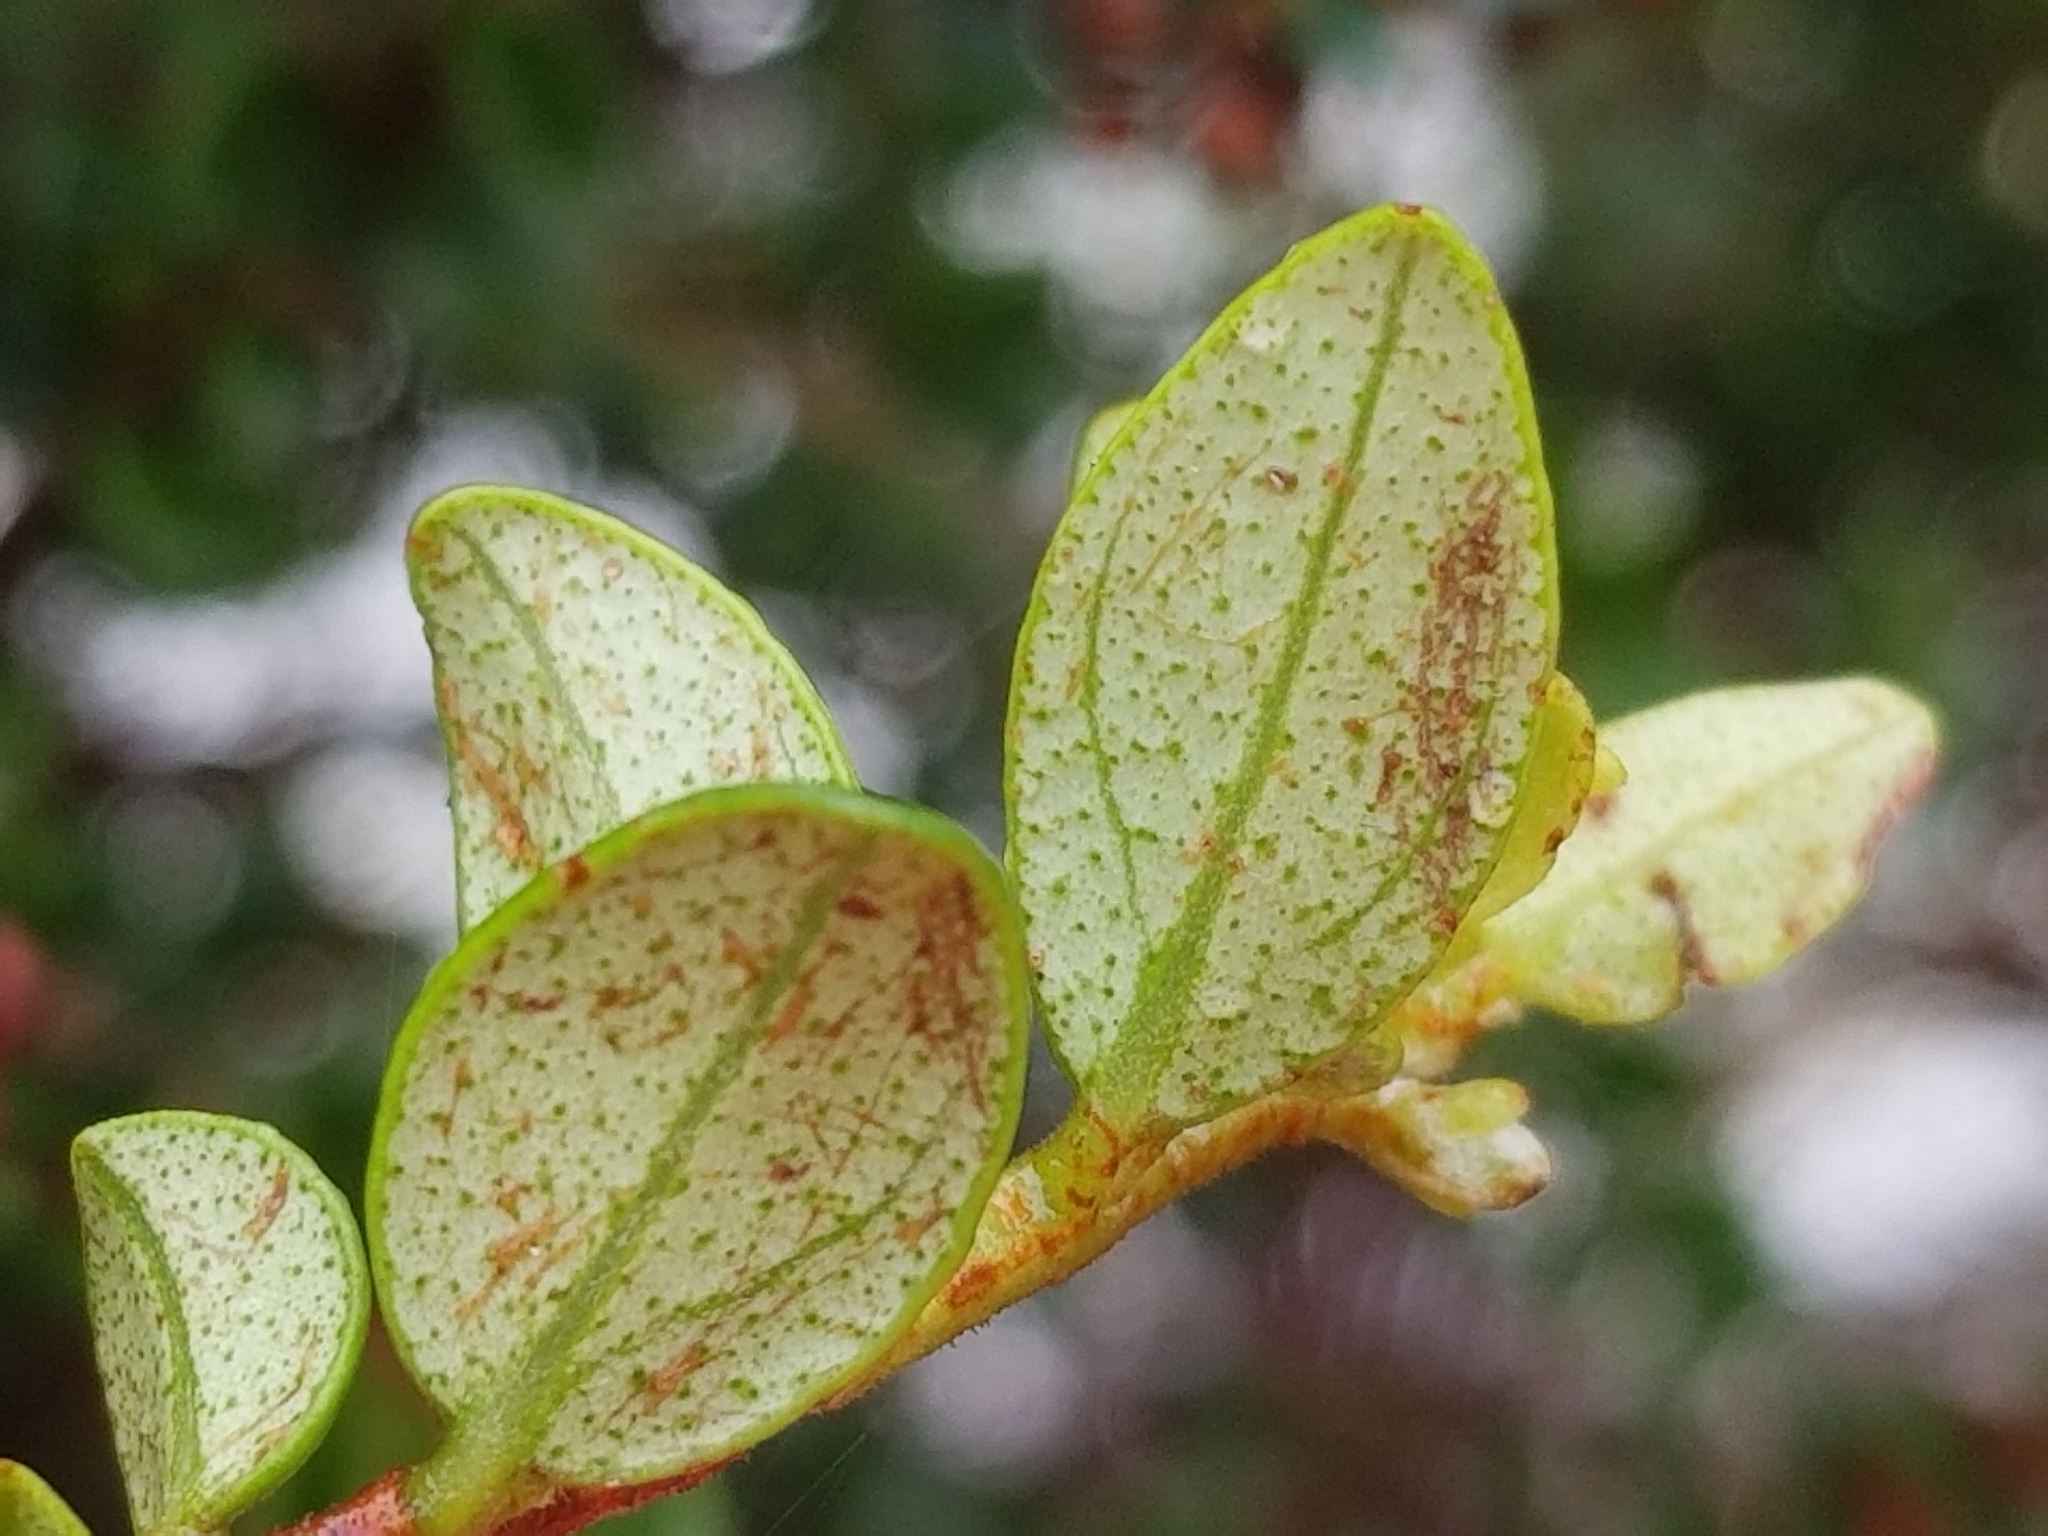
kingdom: Plantae
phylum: Tracheophyta
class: Magnoliopsida
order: Myrtales
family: Myrtaceae
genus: Metrosideros
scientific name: Metrosideros perforata
